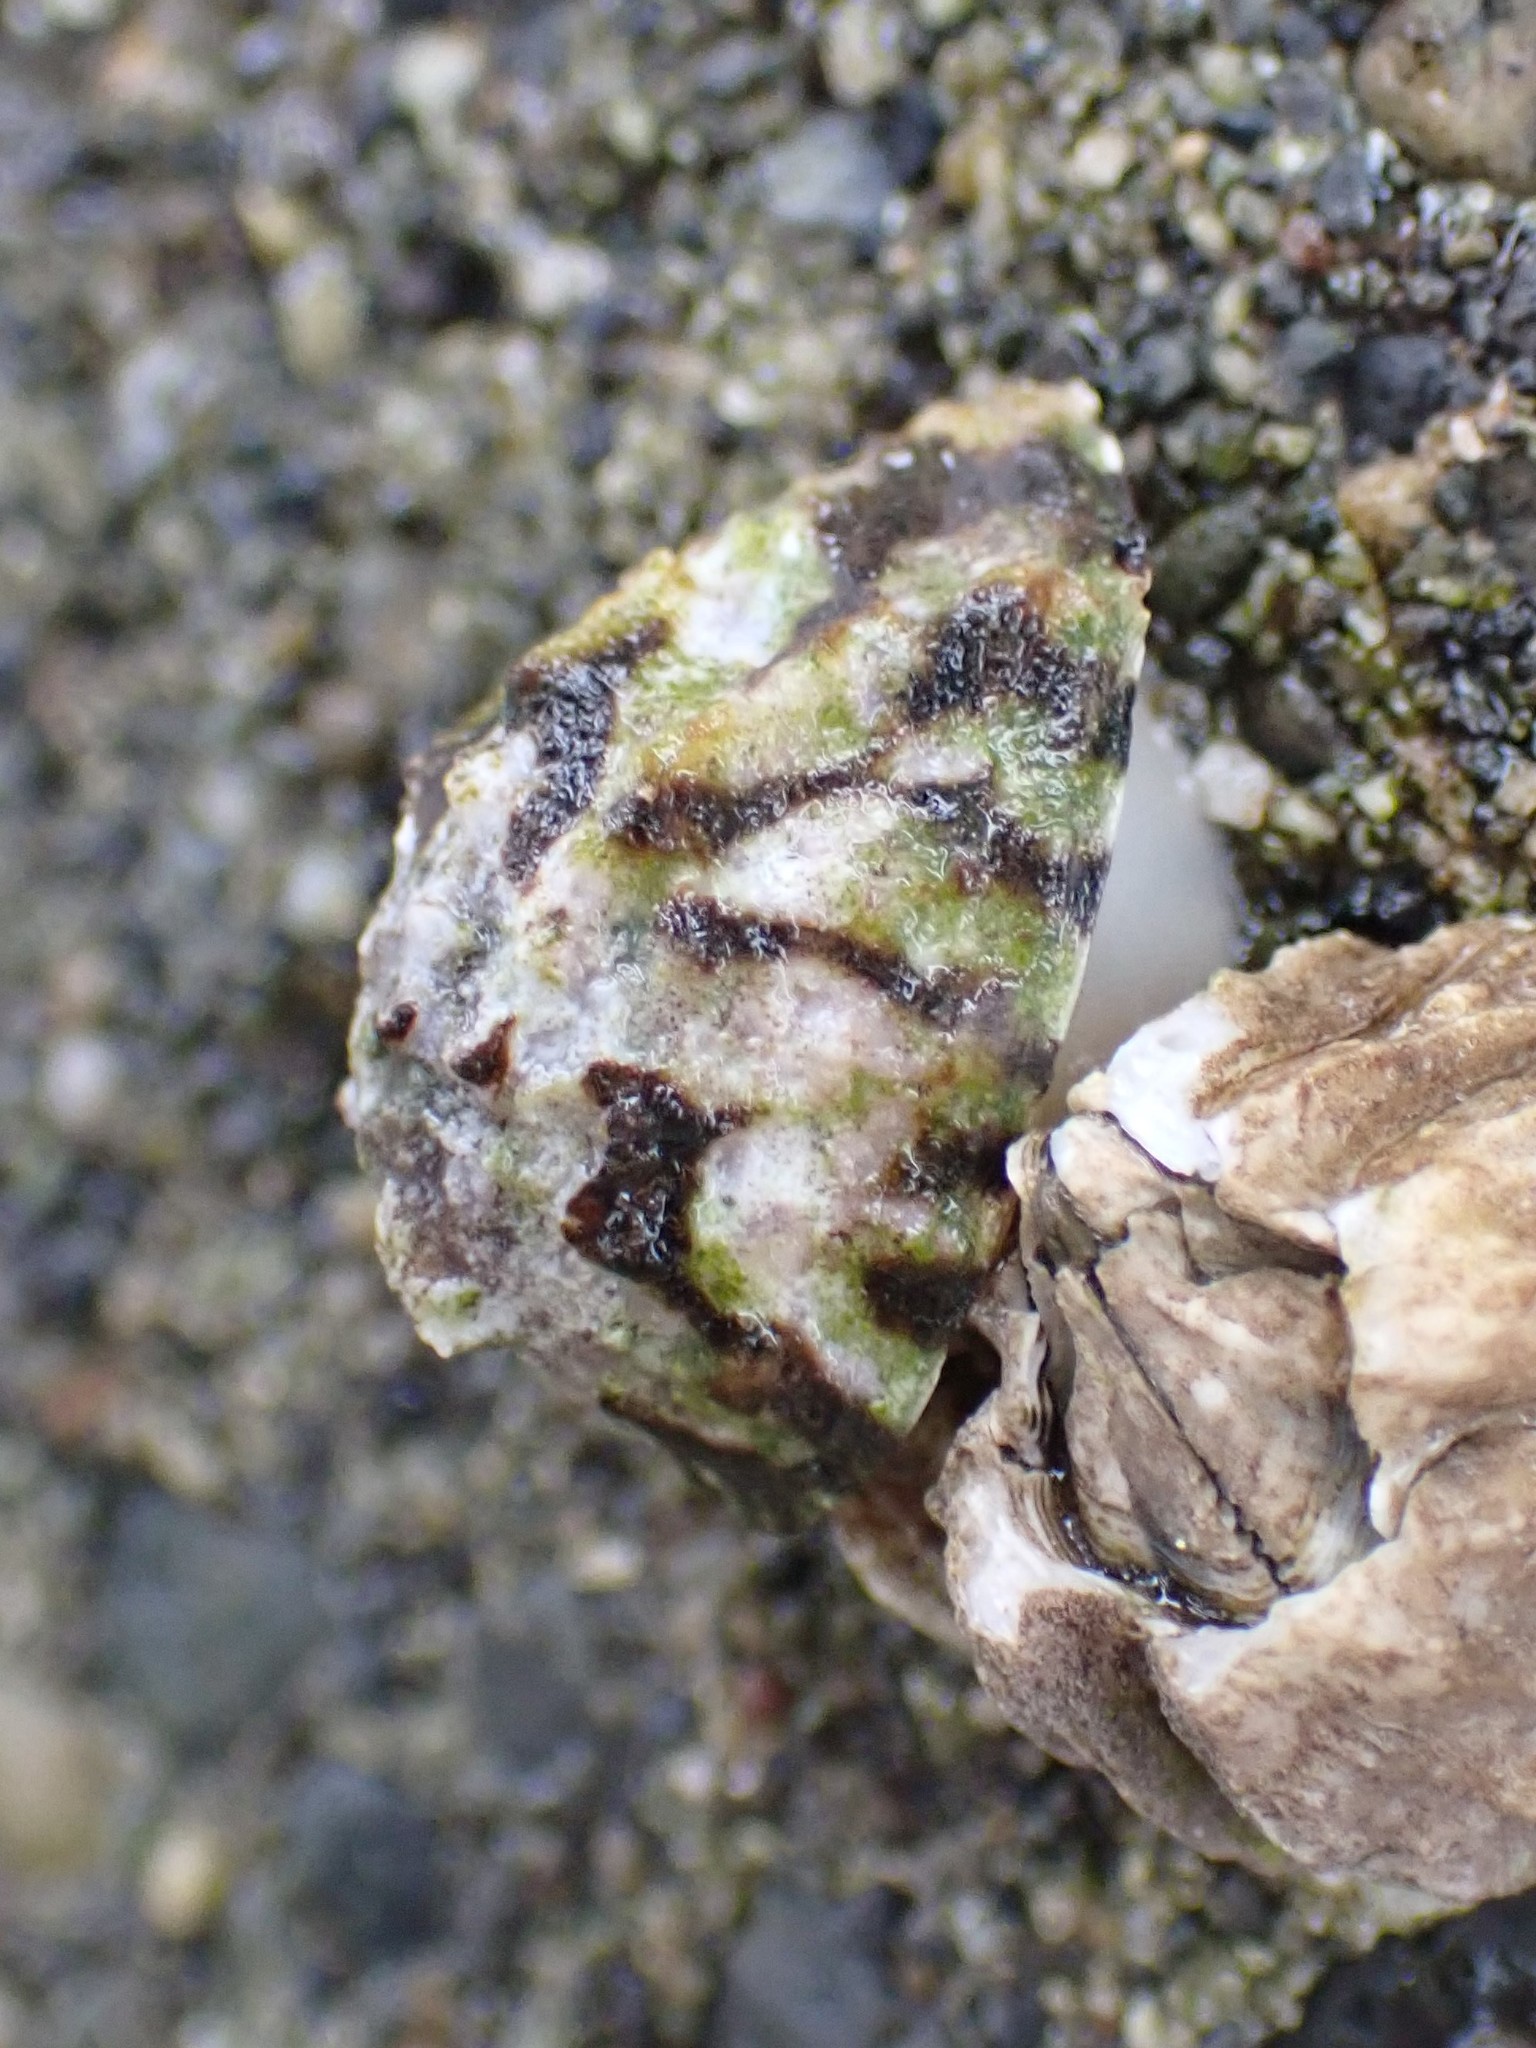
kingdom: Animalia
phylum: Mollusca
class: Gastropoda
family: Lottiidae
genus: Lottia
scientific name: Lottia digitalis
